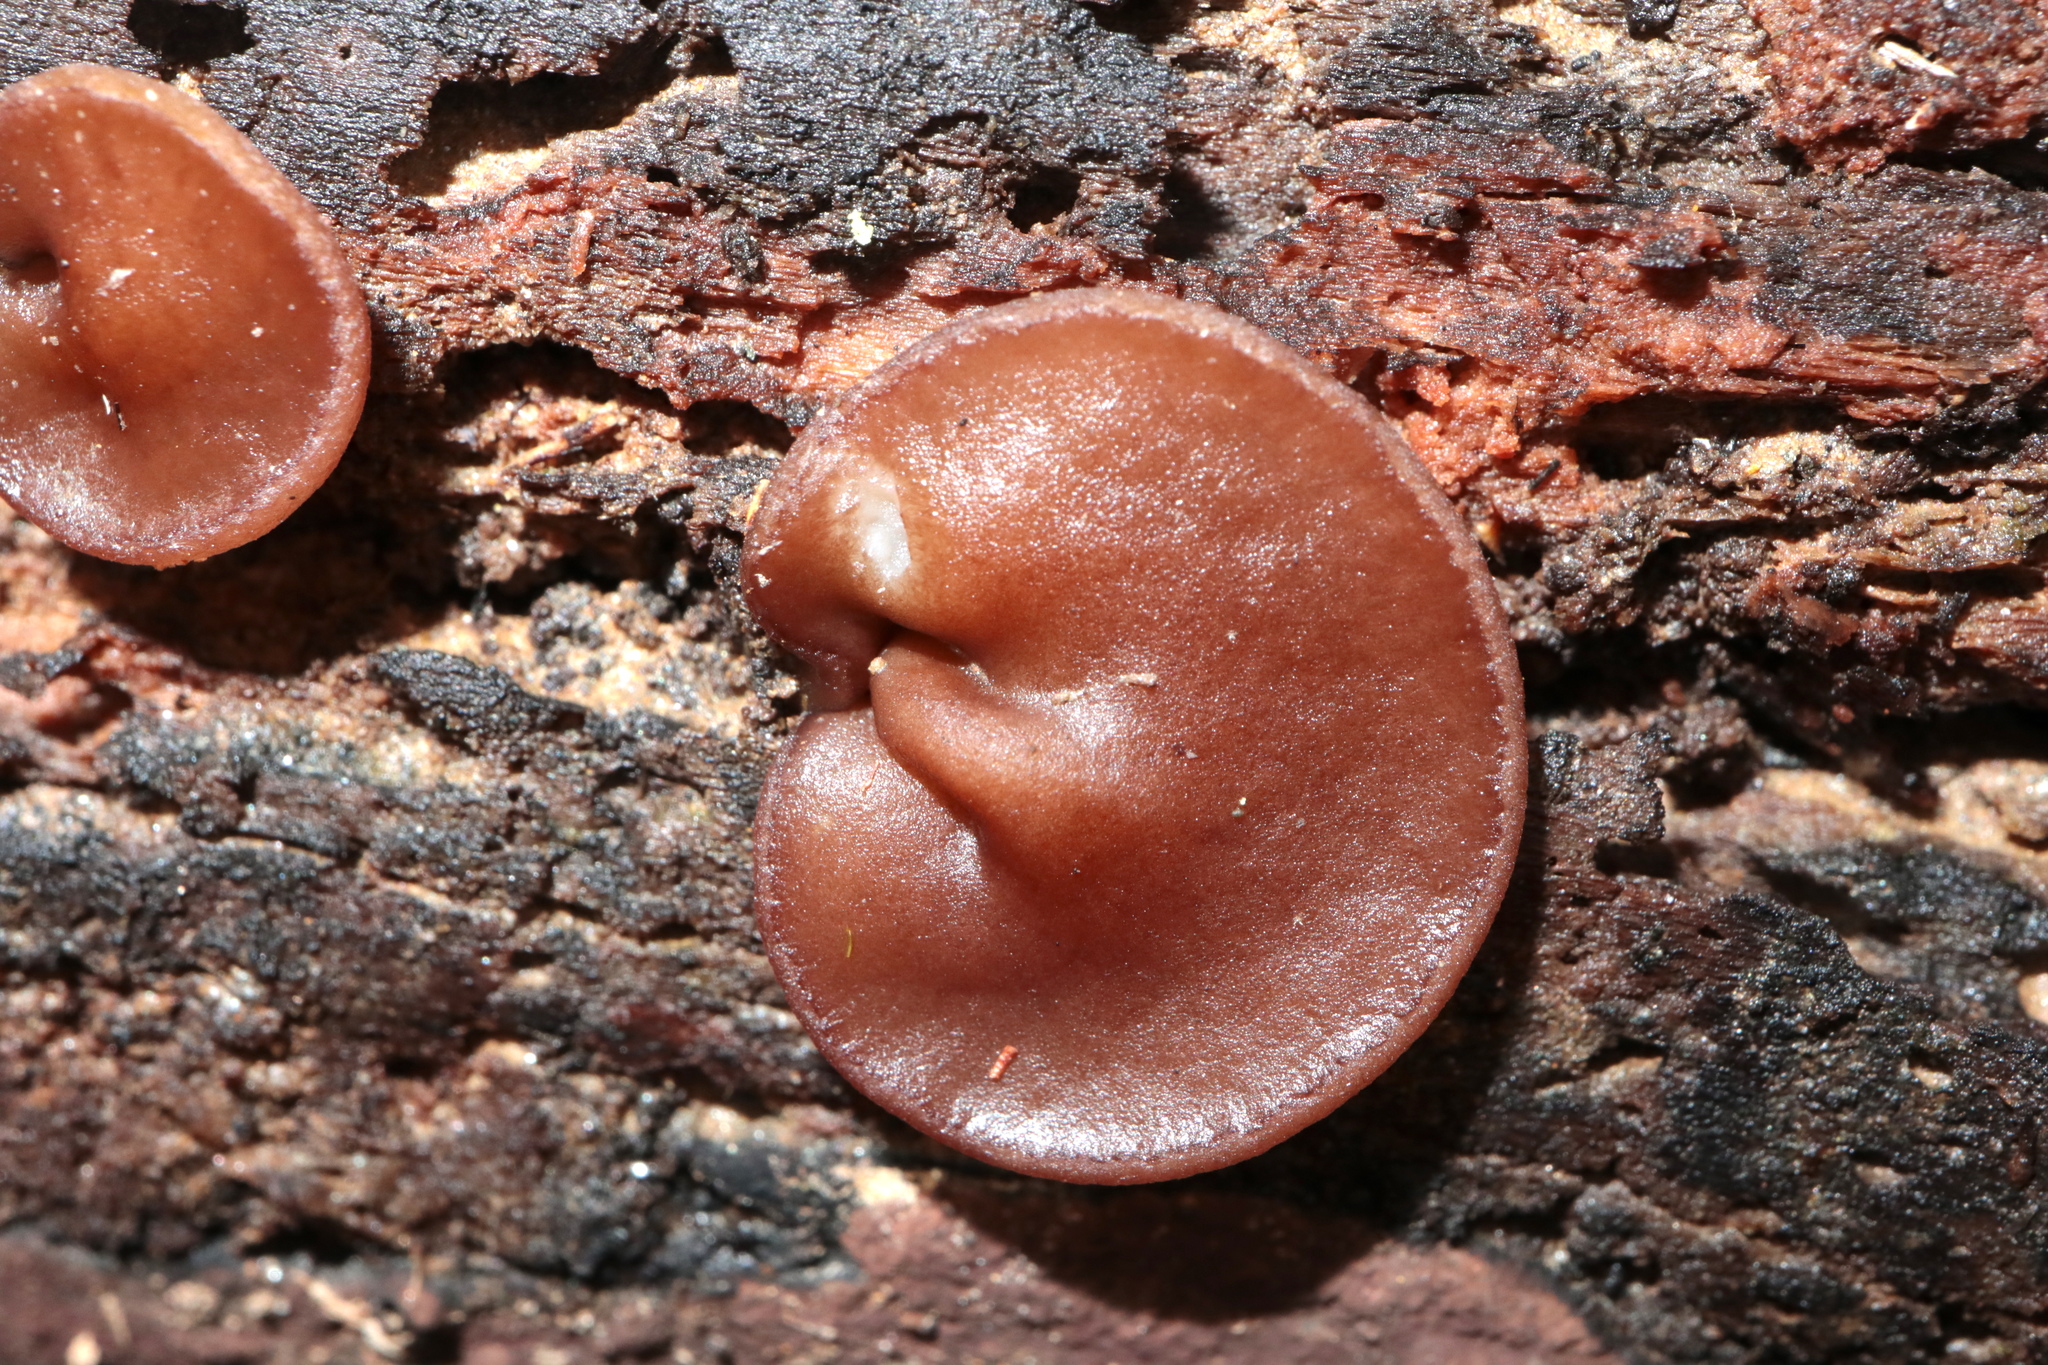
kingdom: Fungi
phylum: Ascomycota
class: Pezizomycetes
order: Pezizales
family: Pezizaceae
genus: Pachyella
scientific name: Pachyella clypeata
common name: Copper penny fungus
